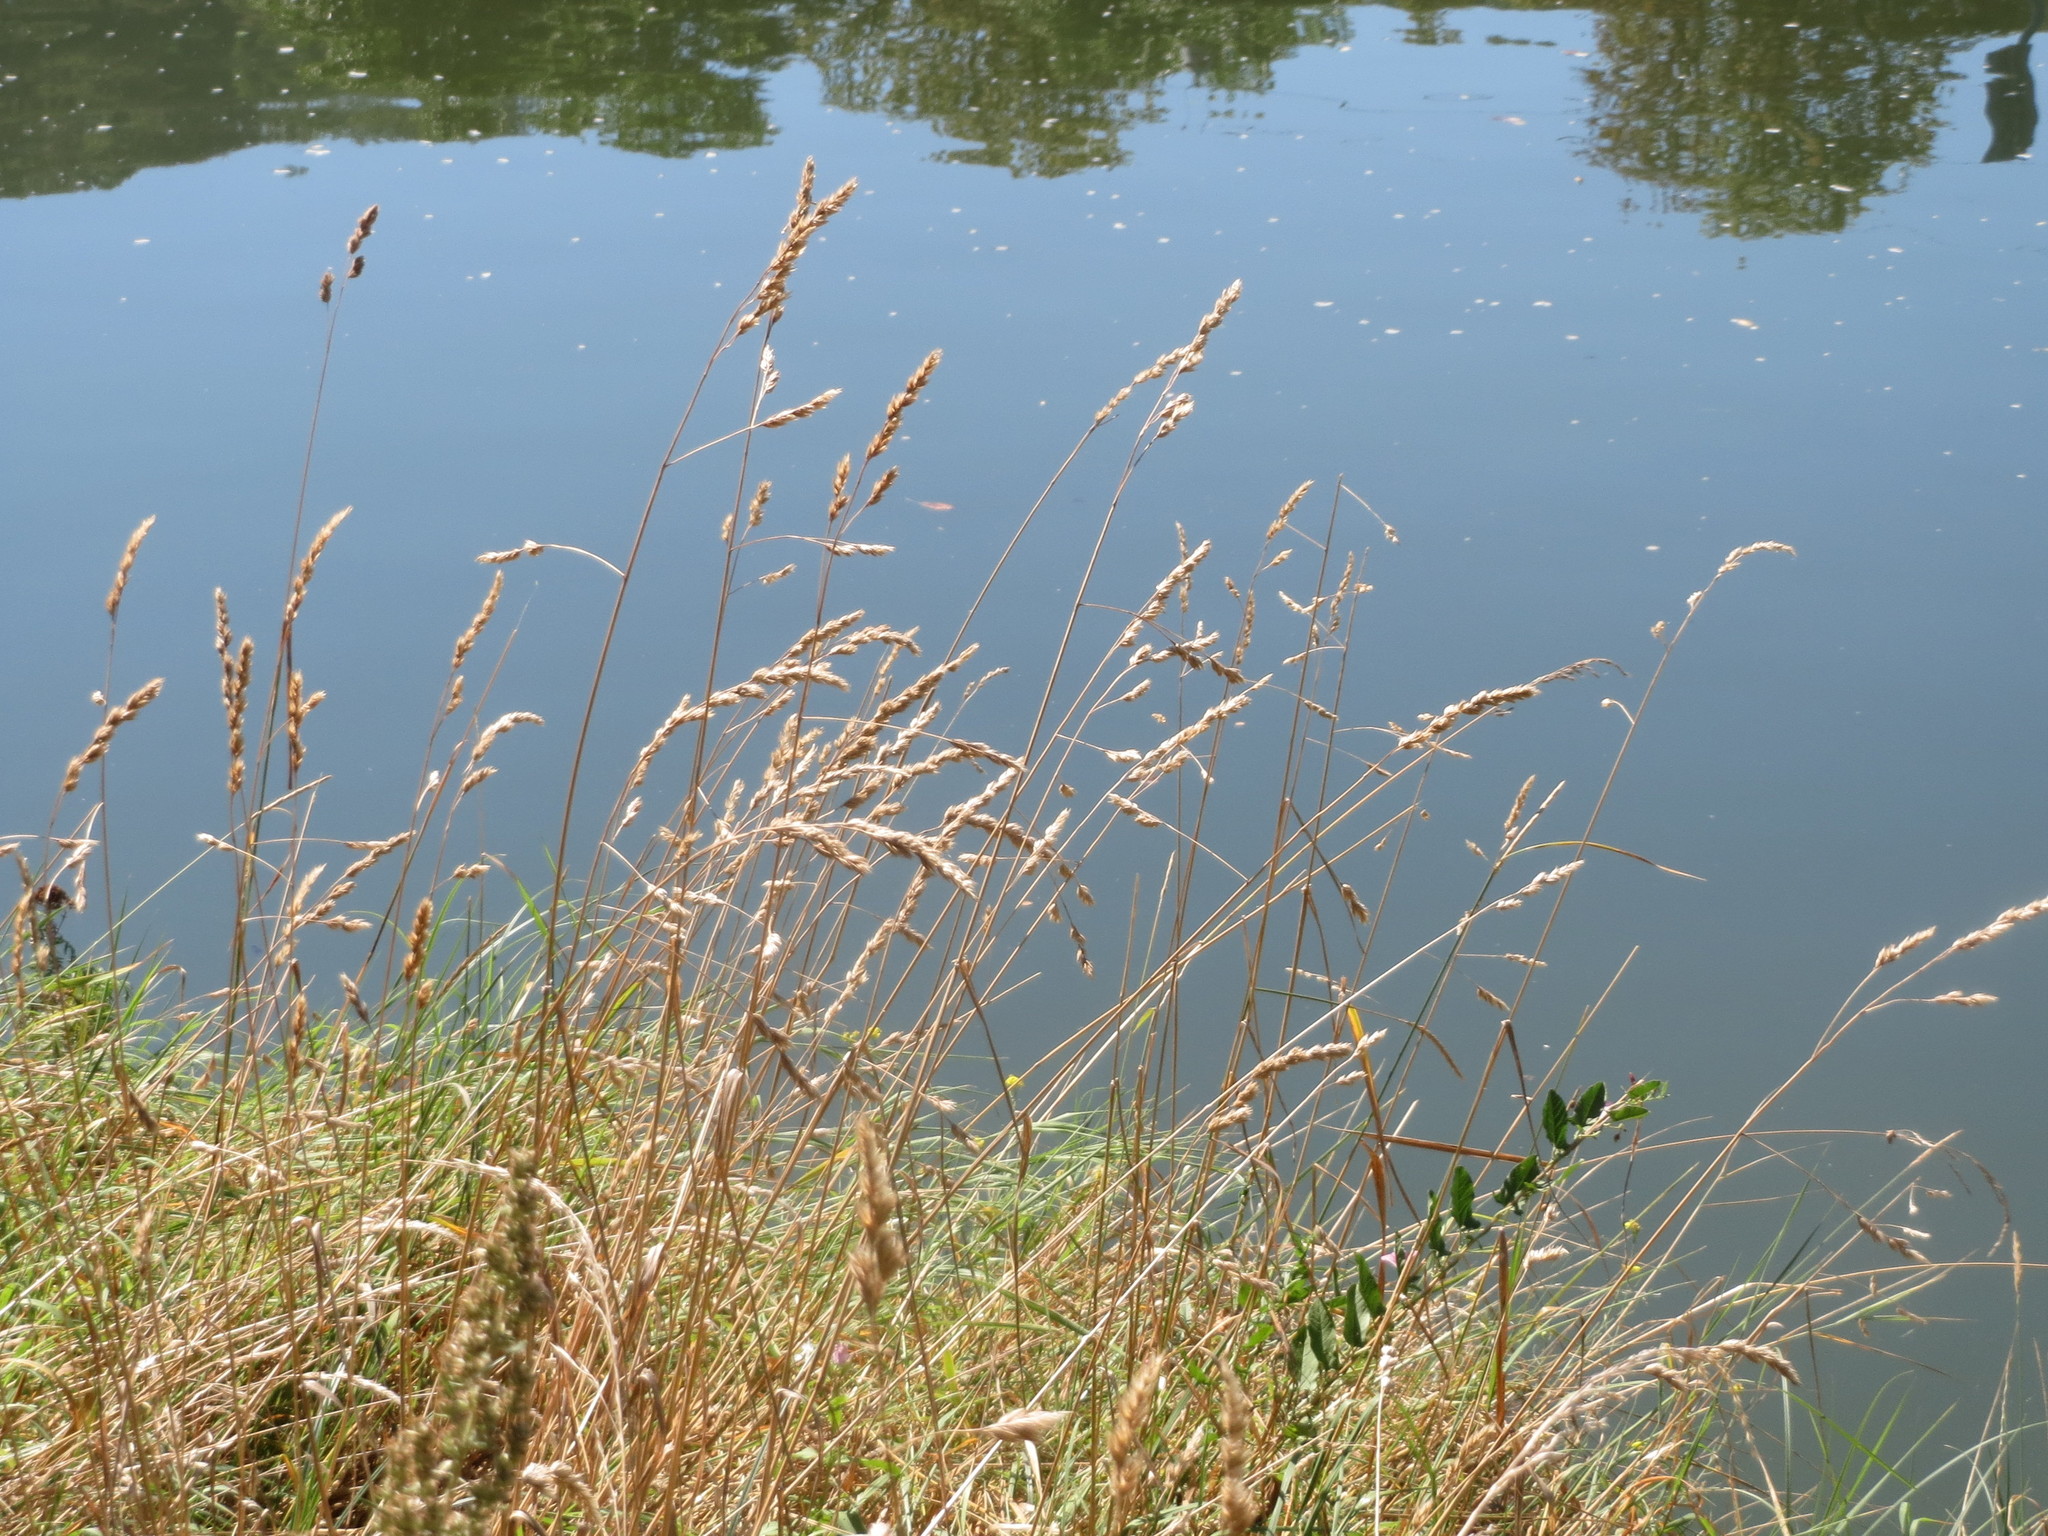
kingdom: Plantae
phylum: Tracheophyta
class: Liliopsida
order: Poales
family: Poaceae
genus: Dactylis
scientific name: Dactylis glomerata
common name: Orchardgrass
